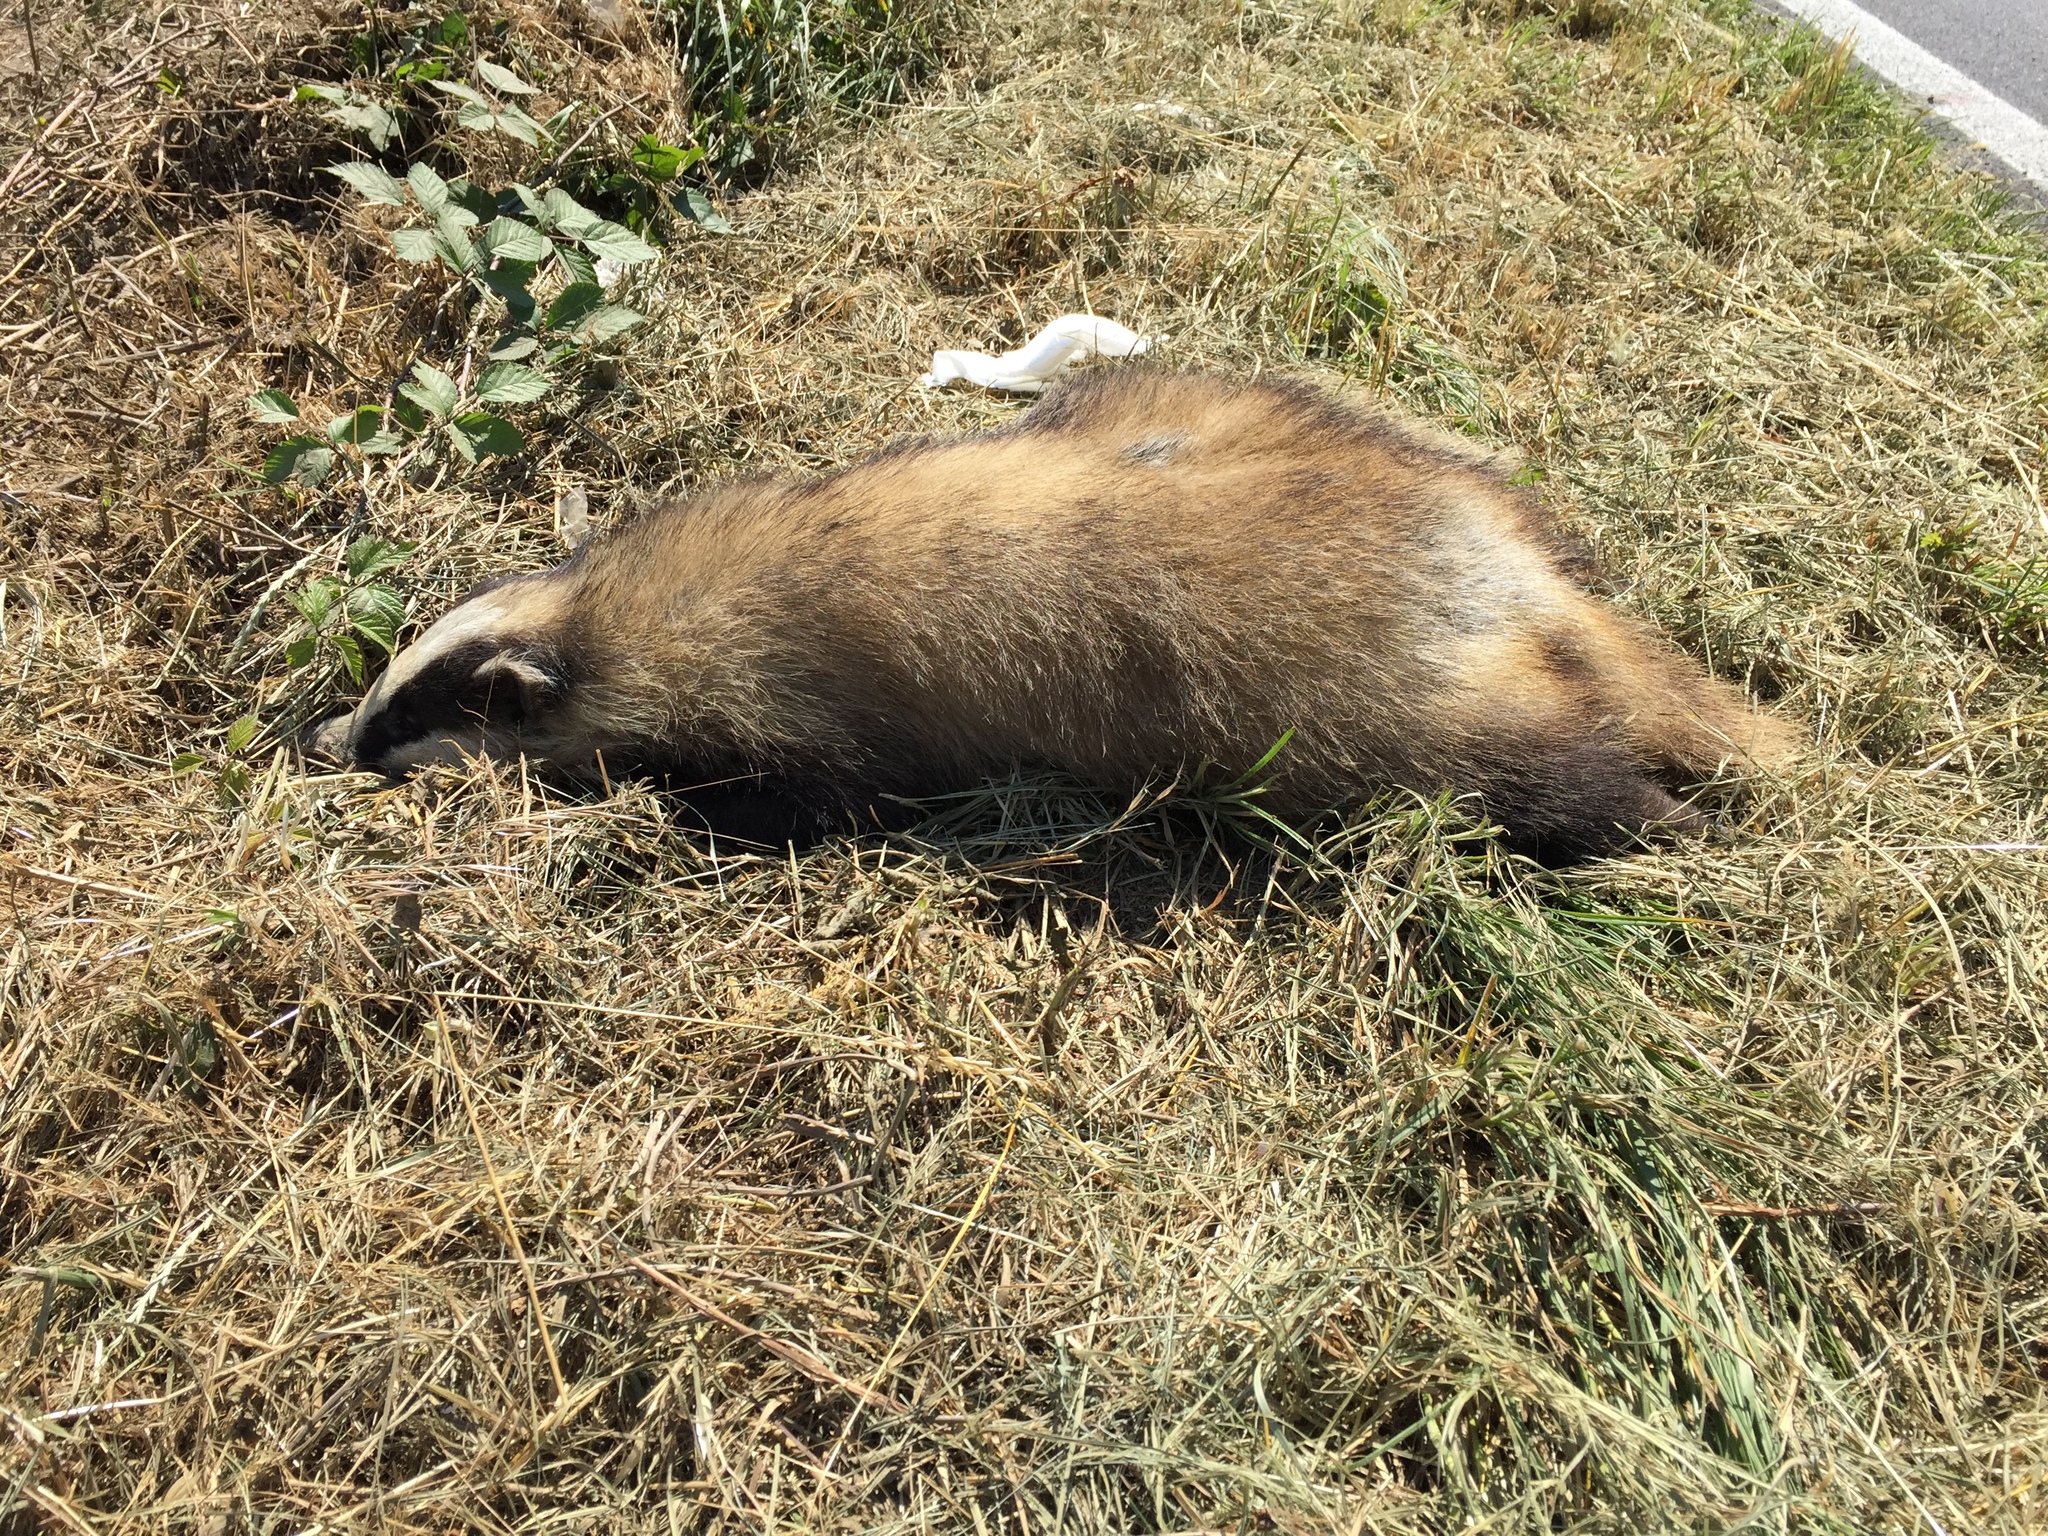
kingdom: Animalia
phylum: Chordata
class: Mammalia
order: Carnivora
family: Mustelidae
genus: Meles
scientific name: Meles meles
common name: Eurasian badger
